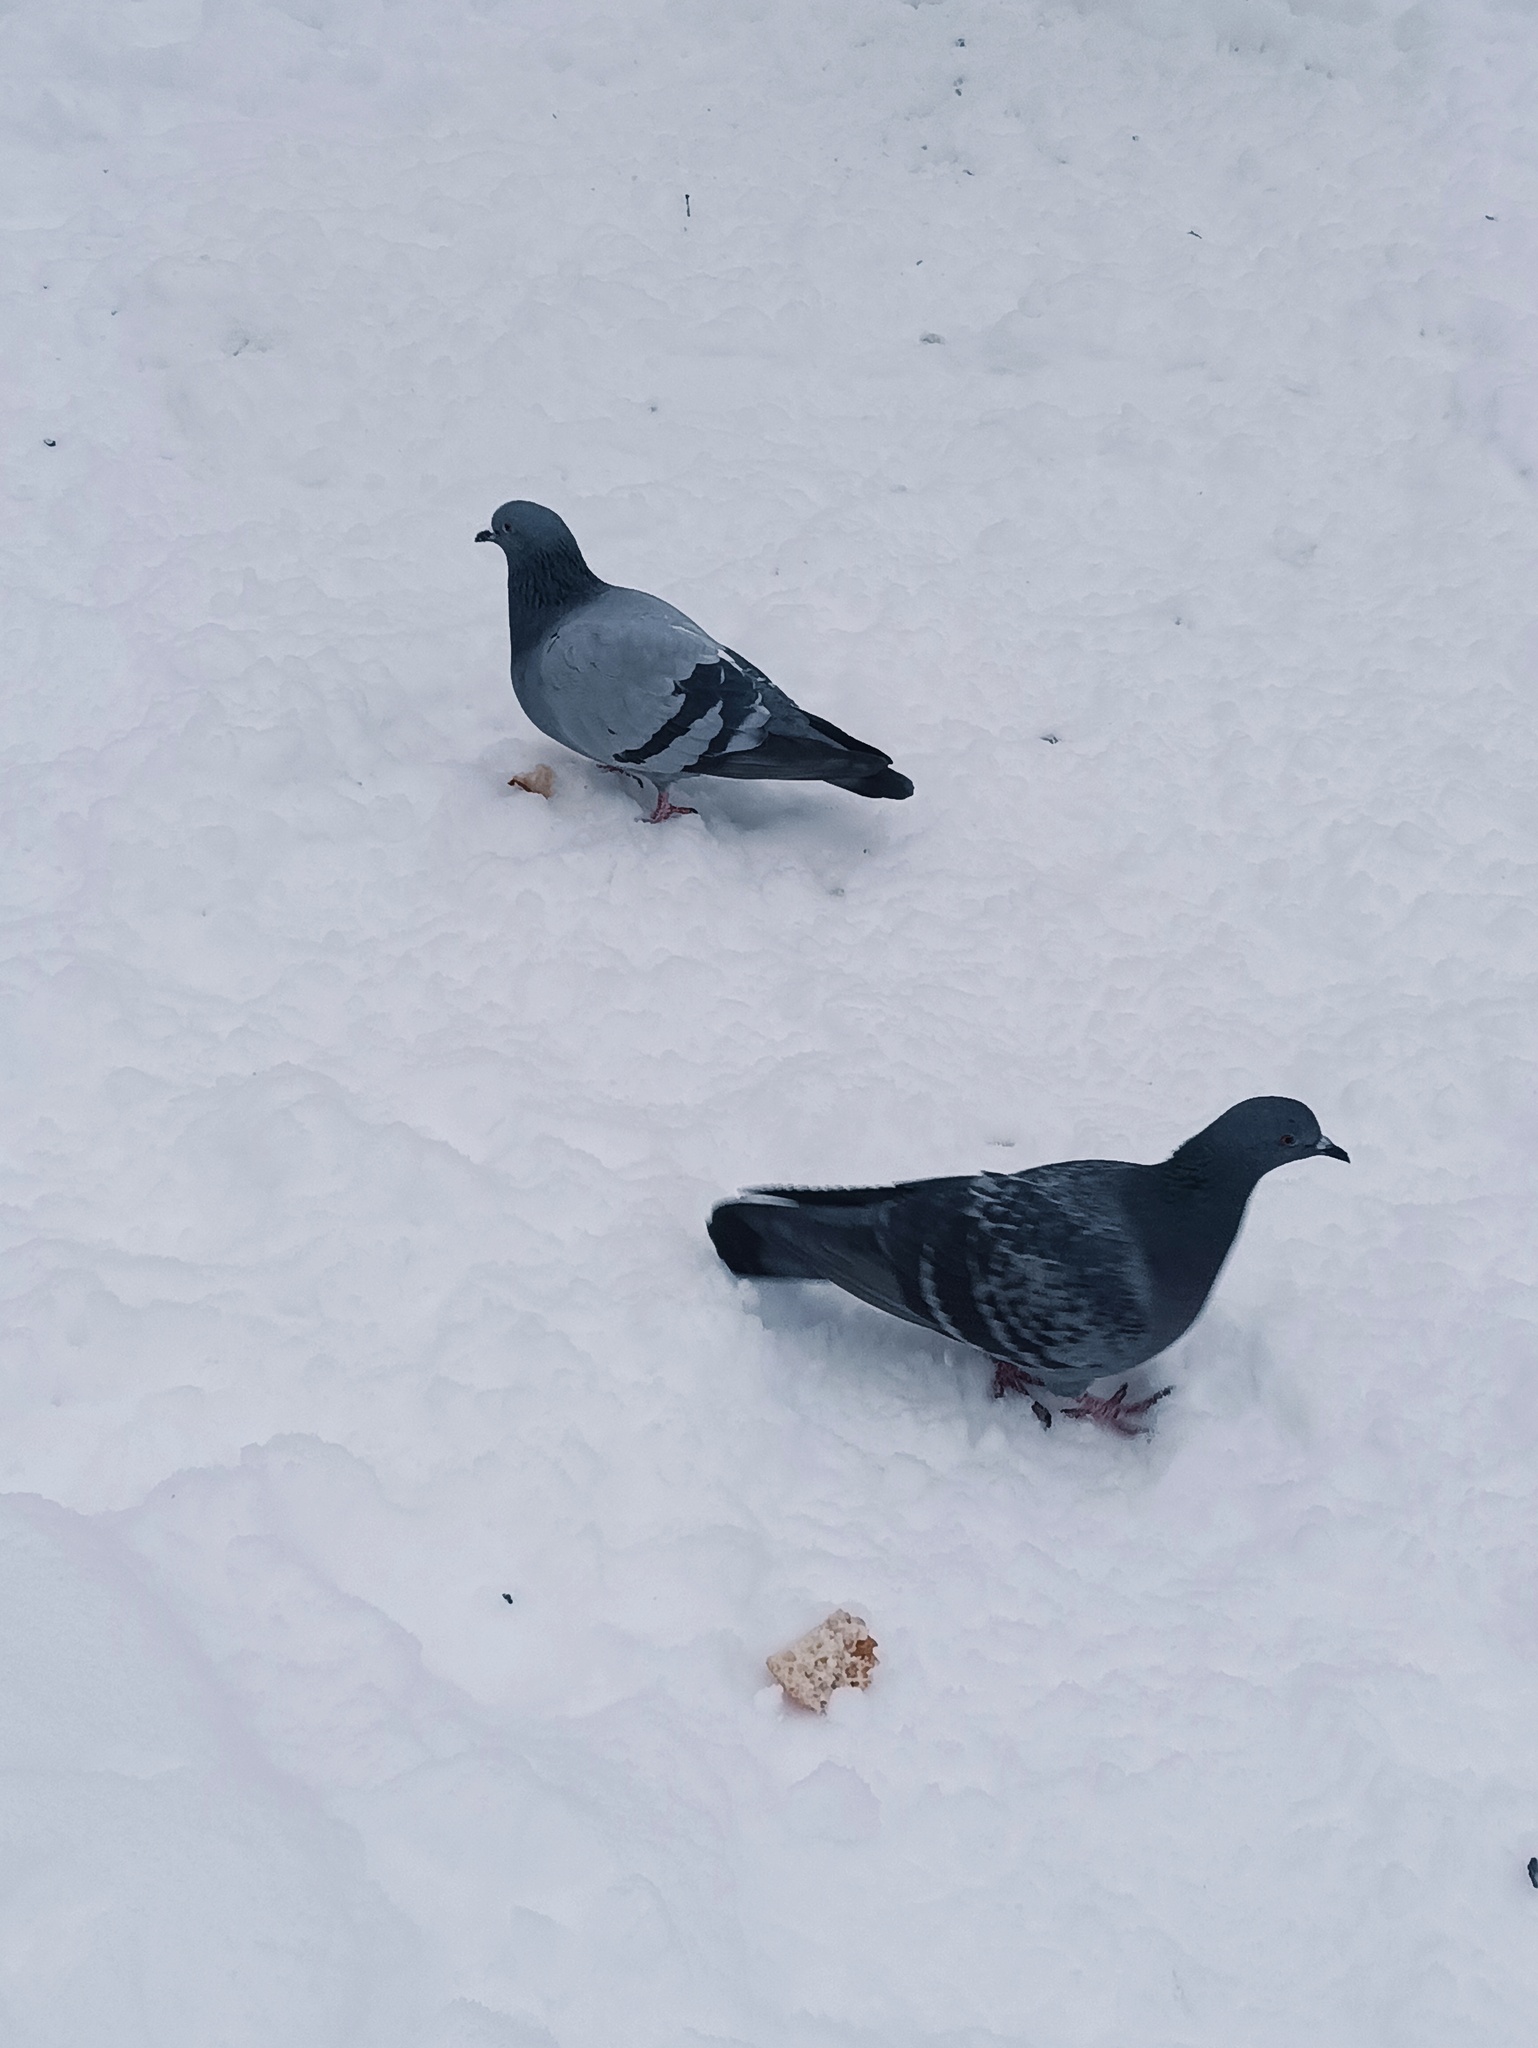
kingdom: Animalia
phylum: Chordata
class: Aves
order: Columbiformes
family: Columbidae
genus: Columba
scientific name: Columba livia
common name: Rock pigeon
